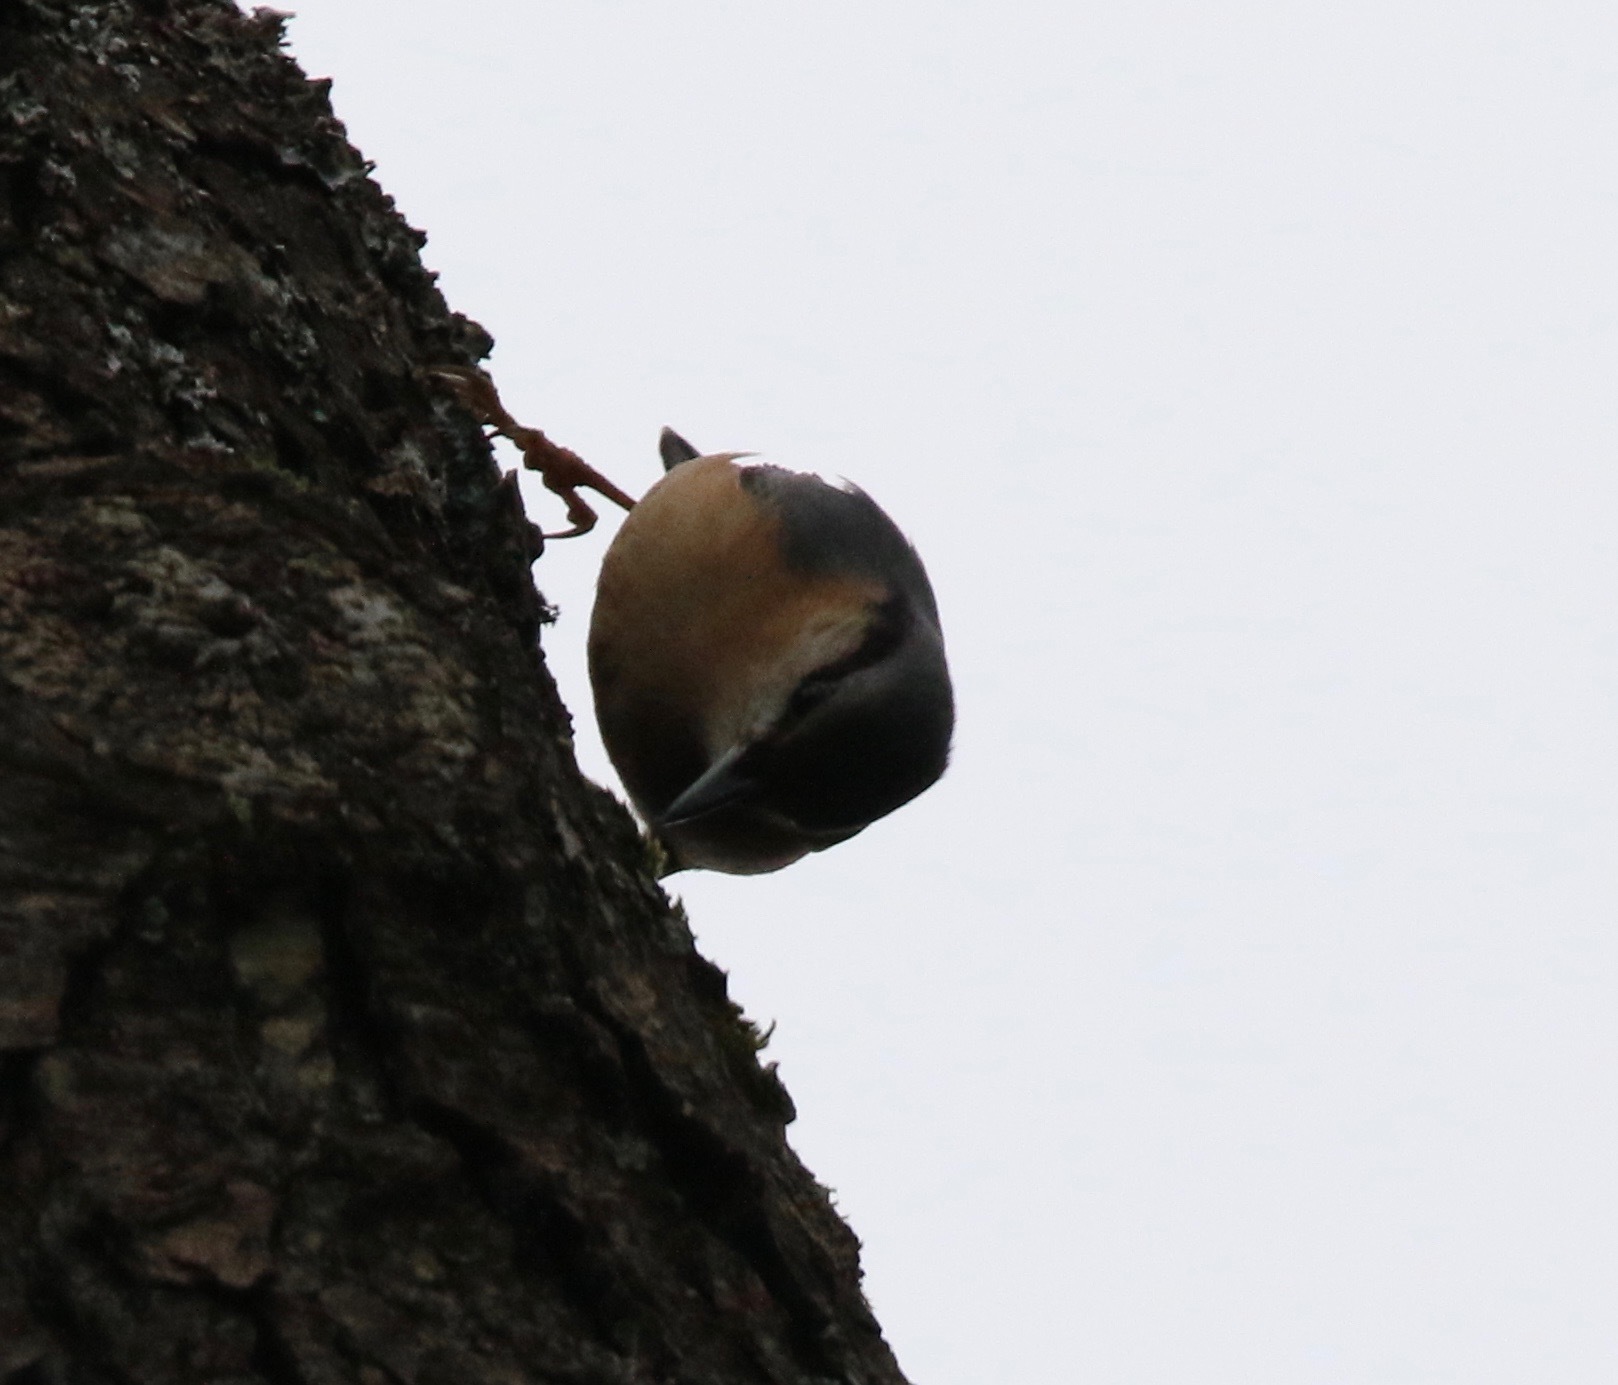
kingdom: Animalia
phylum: Chordata
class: Aves
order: Passeriformes
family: Sittidae
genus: Sitta
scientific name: Sitta europaea
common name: Eurasian nuthatch
